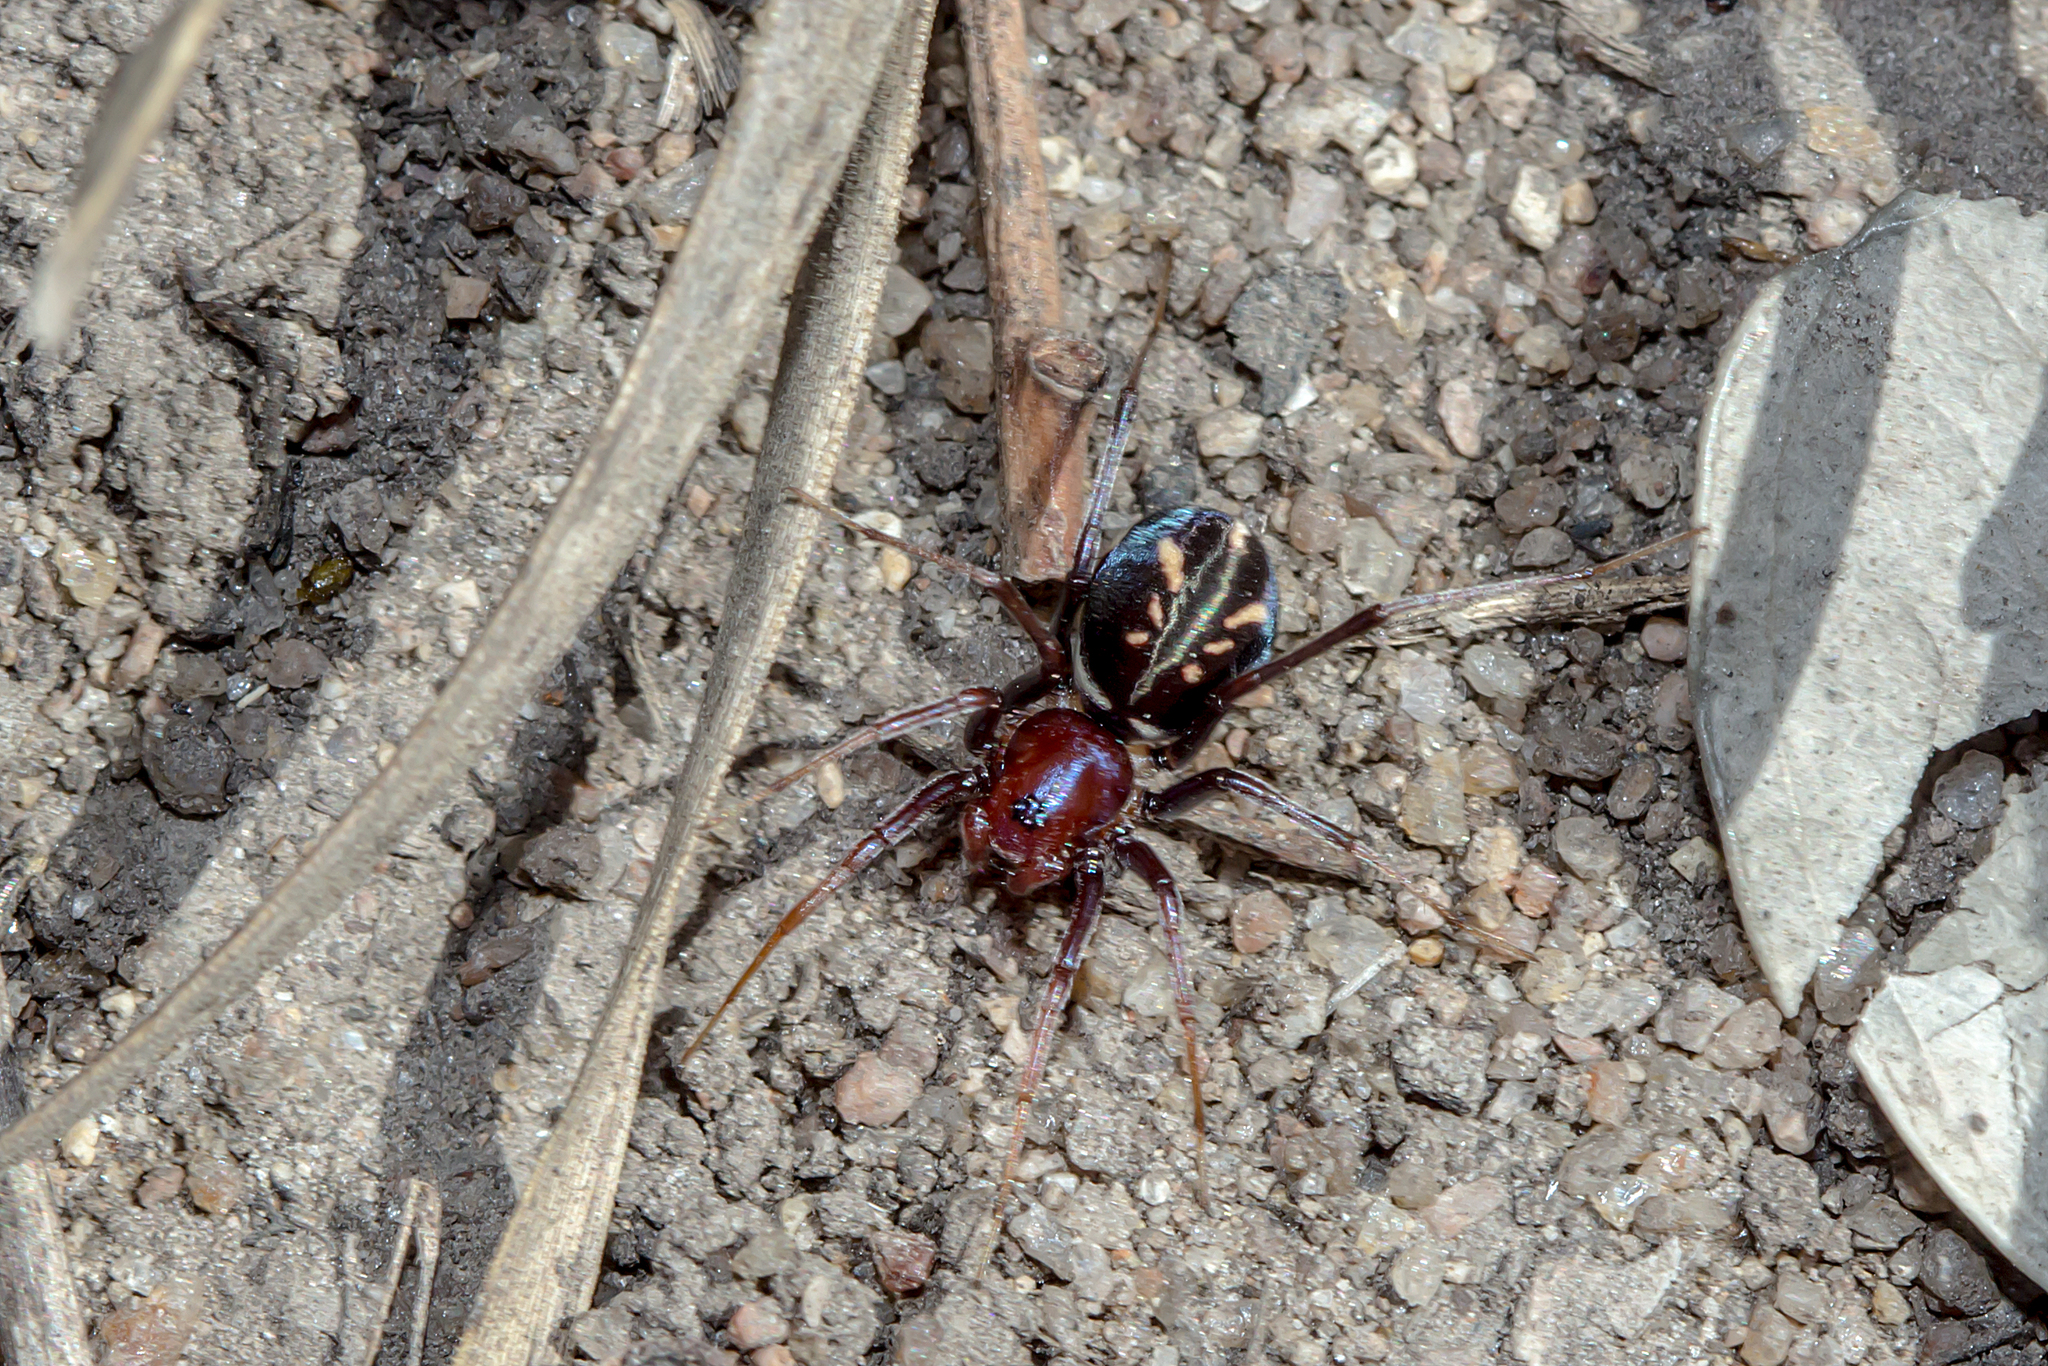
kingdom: Animalia
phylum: Arthropoda
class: Arachnida
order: Araneae
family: Zodariidae
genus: Habronestes
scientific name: Habronestes bradleyi
